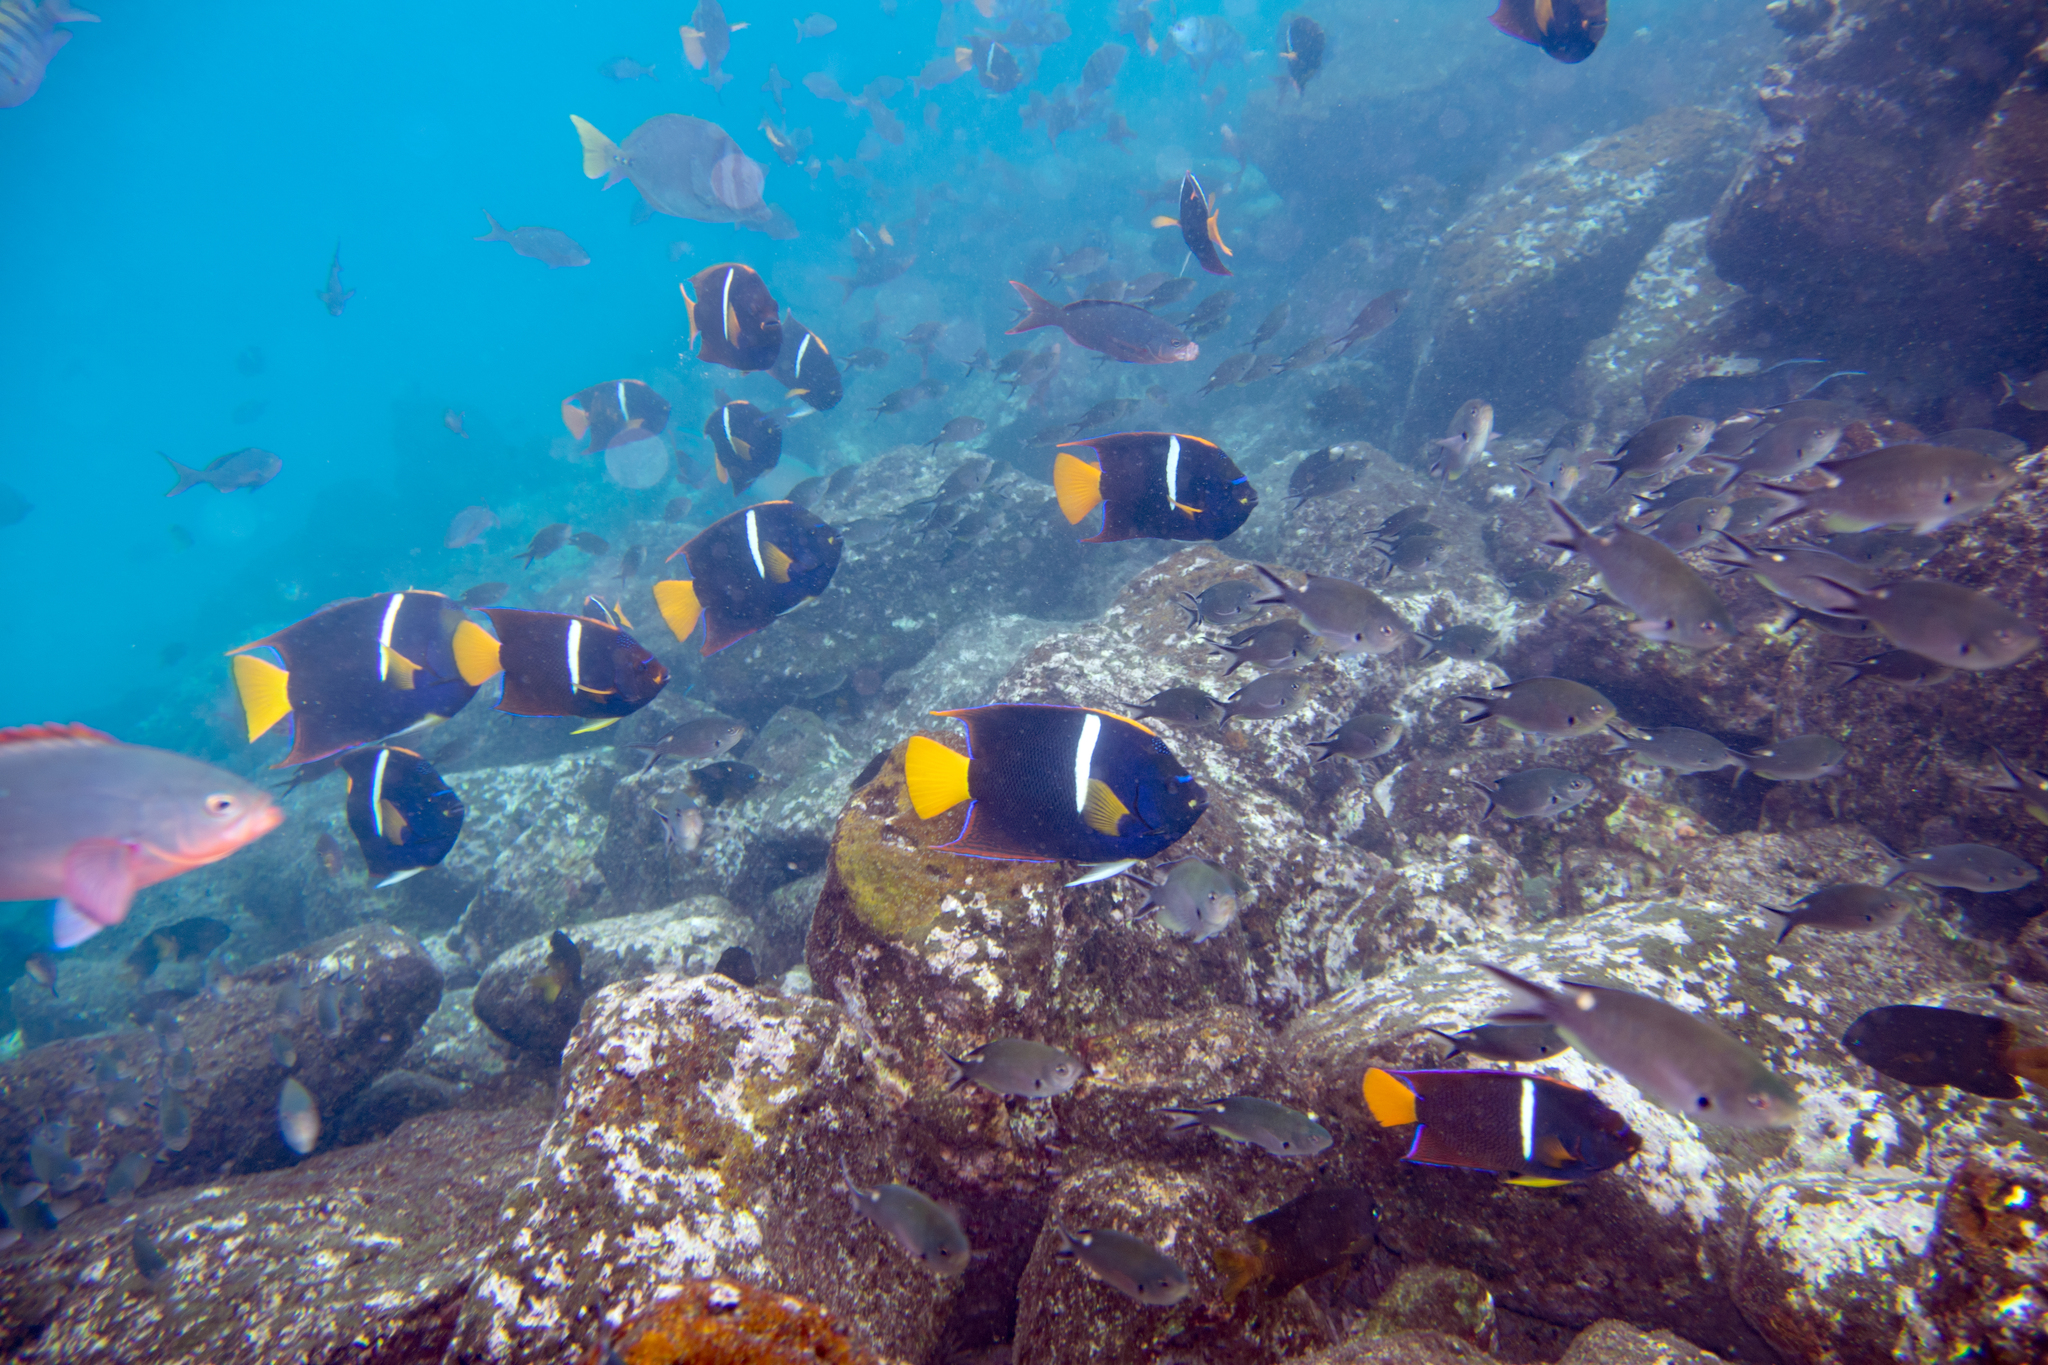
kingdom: Animalia
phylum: Chordata
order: Perciformes
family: Pomacanthidae
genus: Holacanthus
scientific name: Holacanthus passer
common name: King angelfish
